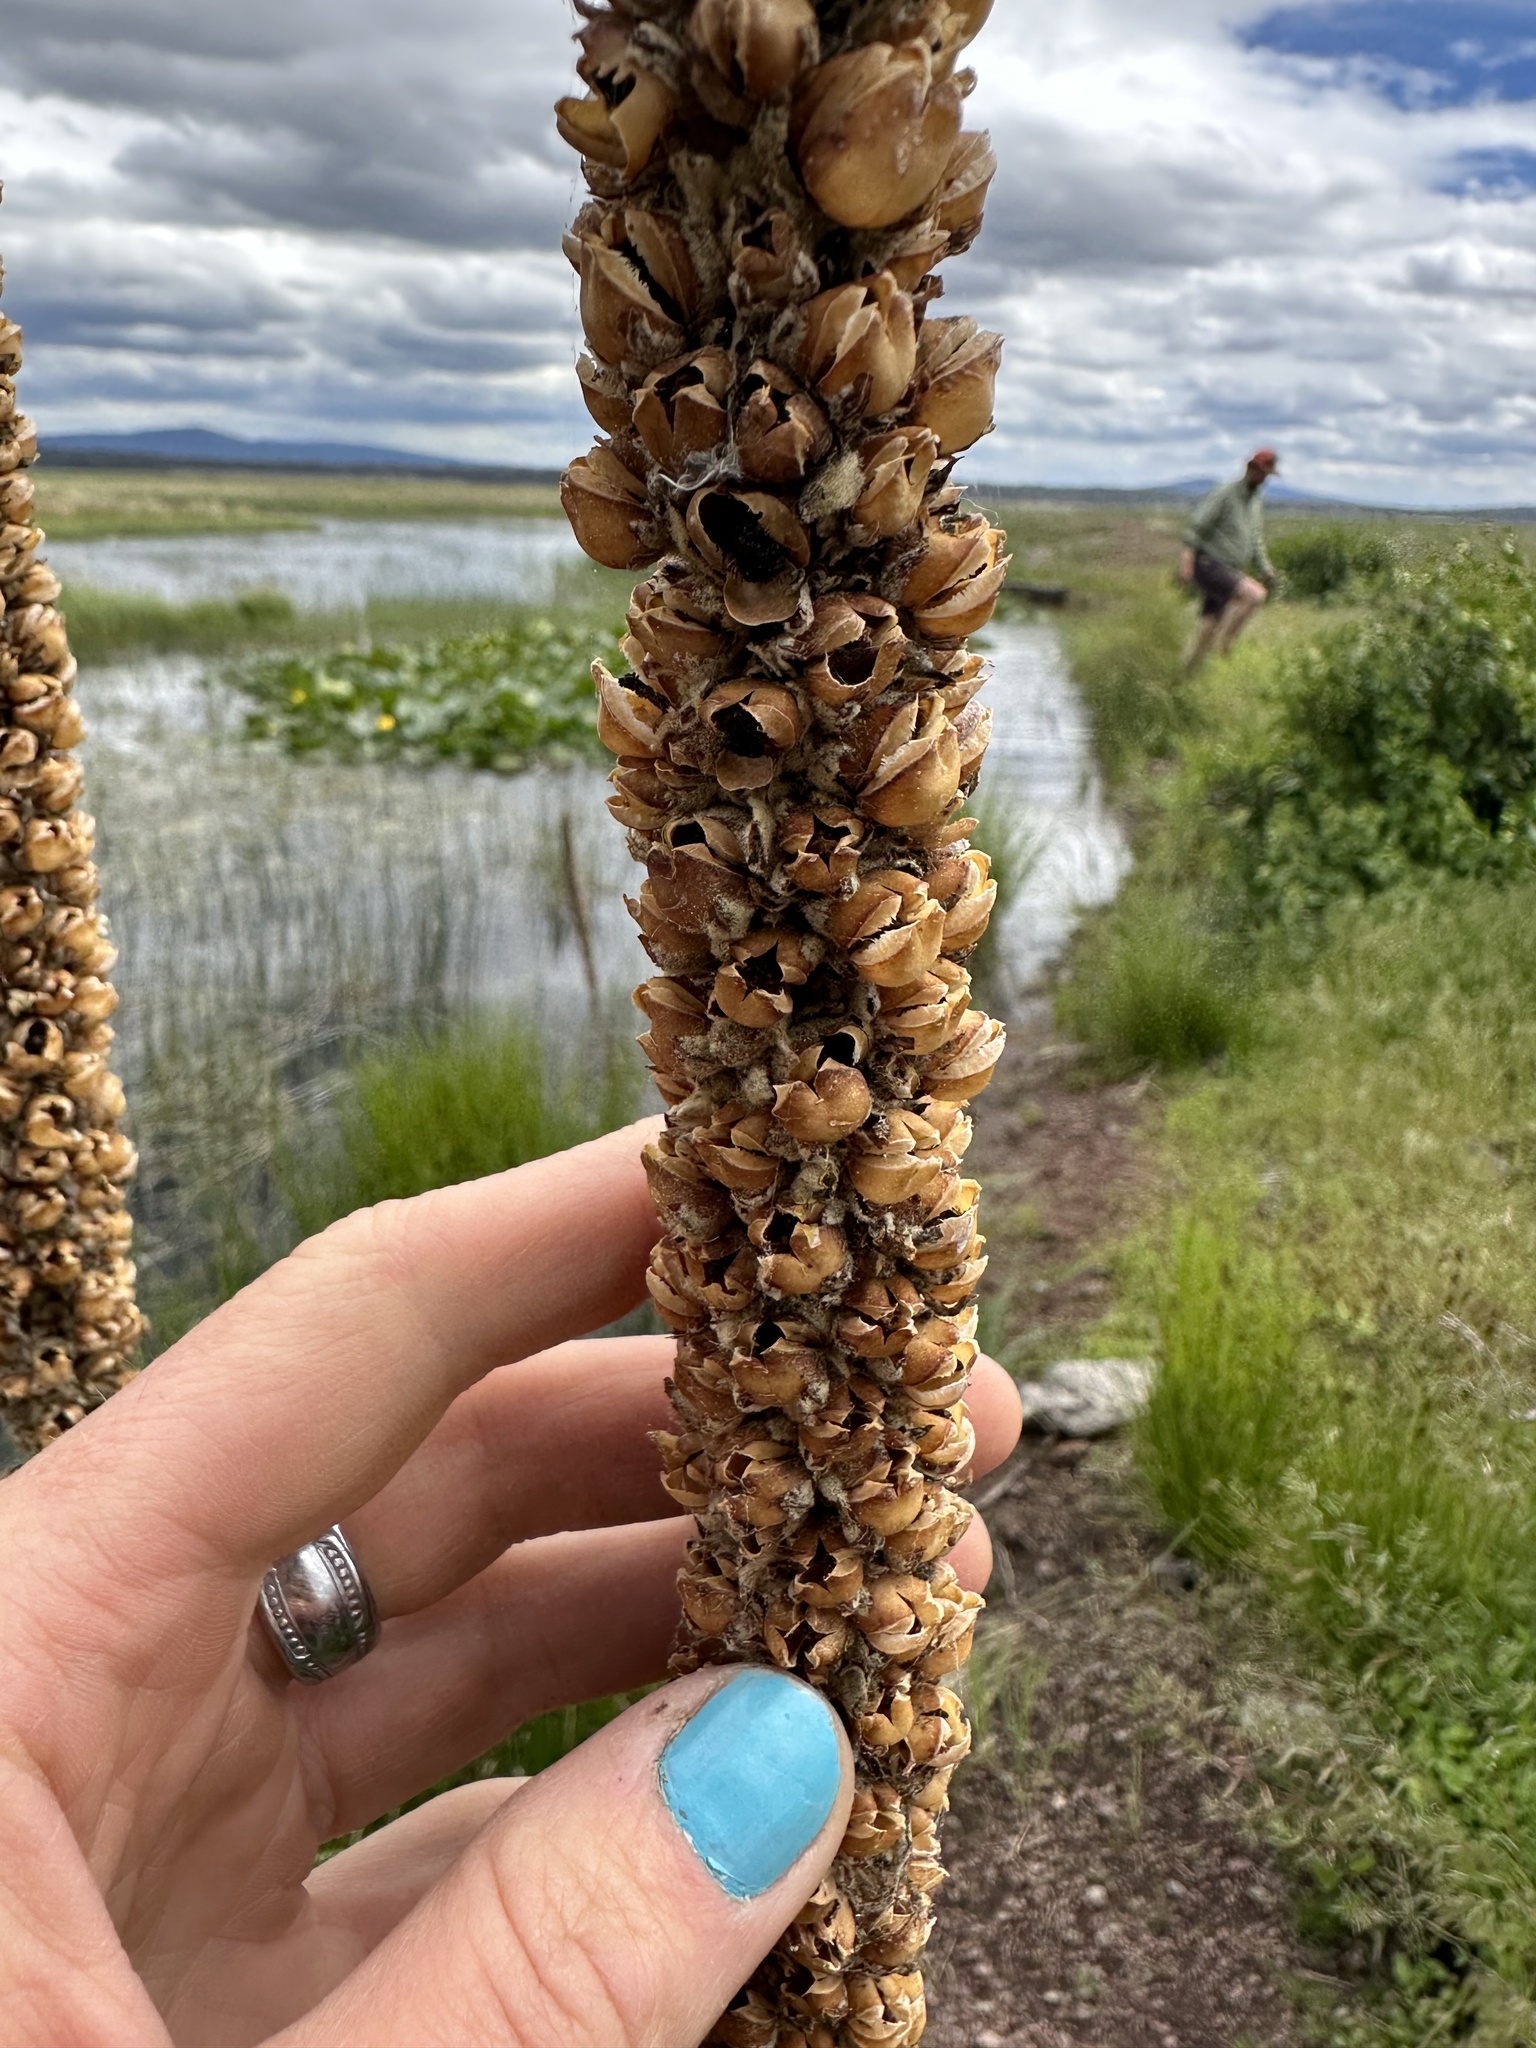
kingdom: Plantae
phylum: Tracheophyta
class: Magnoliopsida
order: Lamiales
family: Scrophulariaceae
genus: Verbascum
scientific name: Verbascum thapsus
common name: Common mullein
